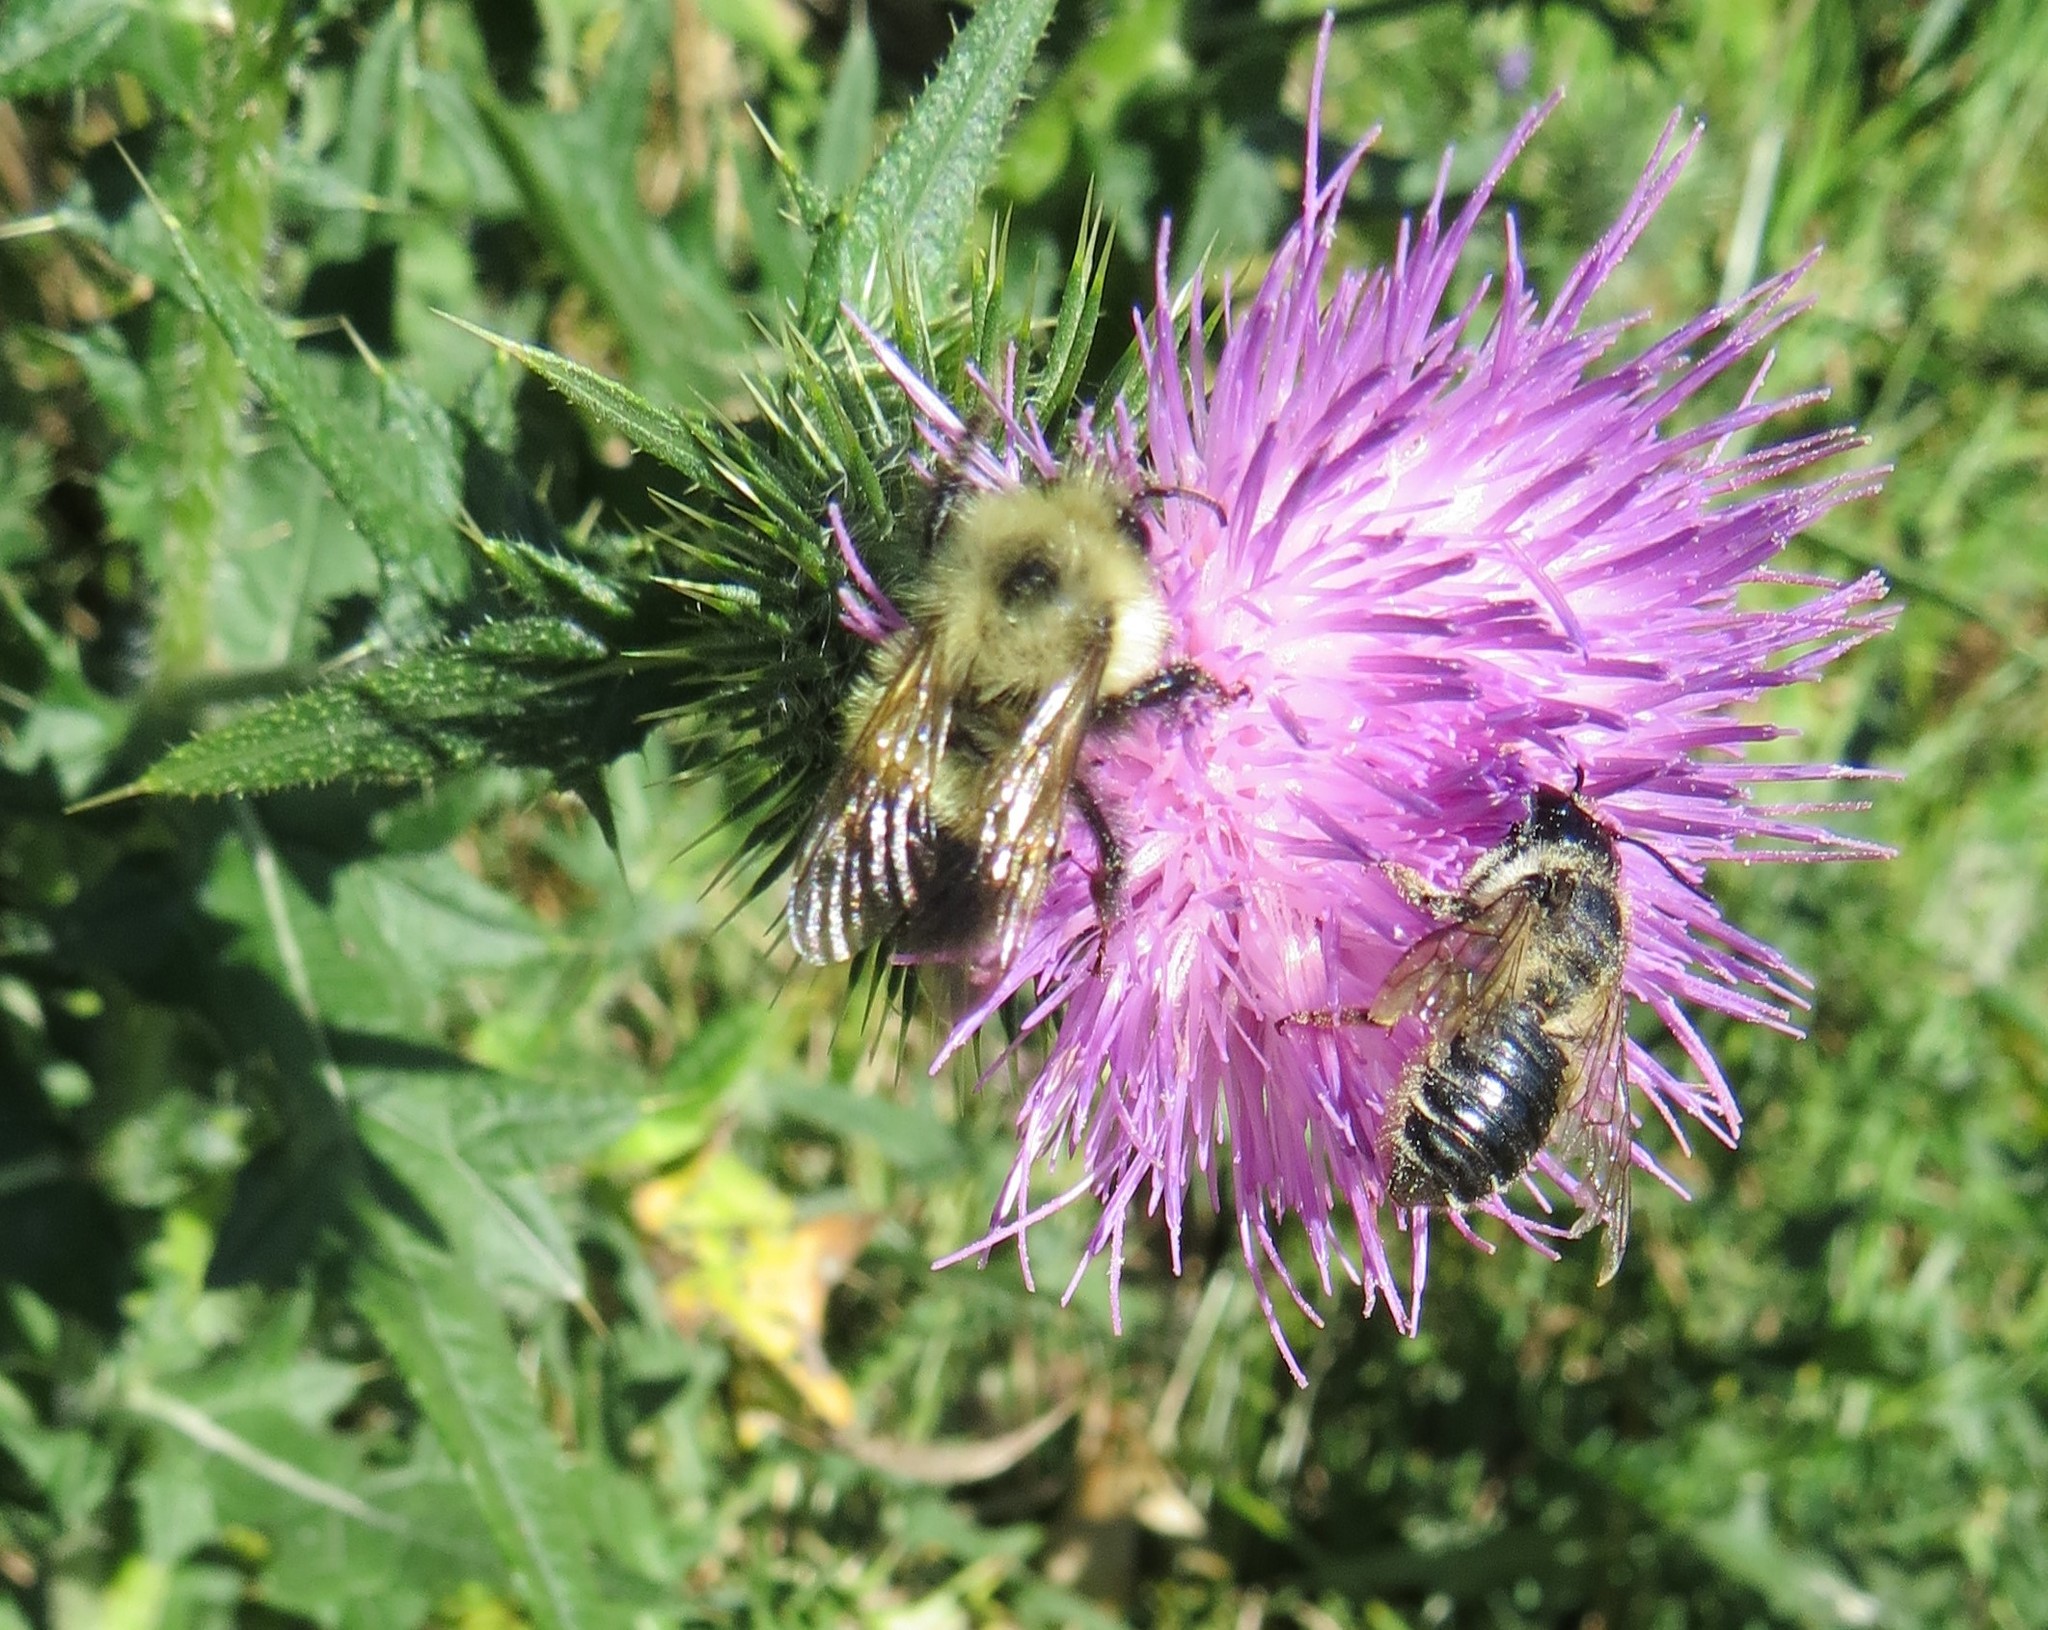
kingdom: Plantae
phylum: Tracheophyta
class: Magnoliopsida
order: Asterales
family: Asteraceae
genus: Cirsium
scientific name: Cirsium vulgare
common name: Bull thistle
